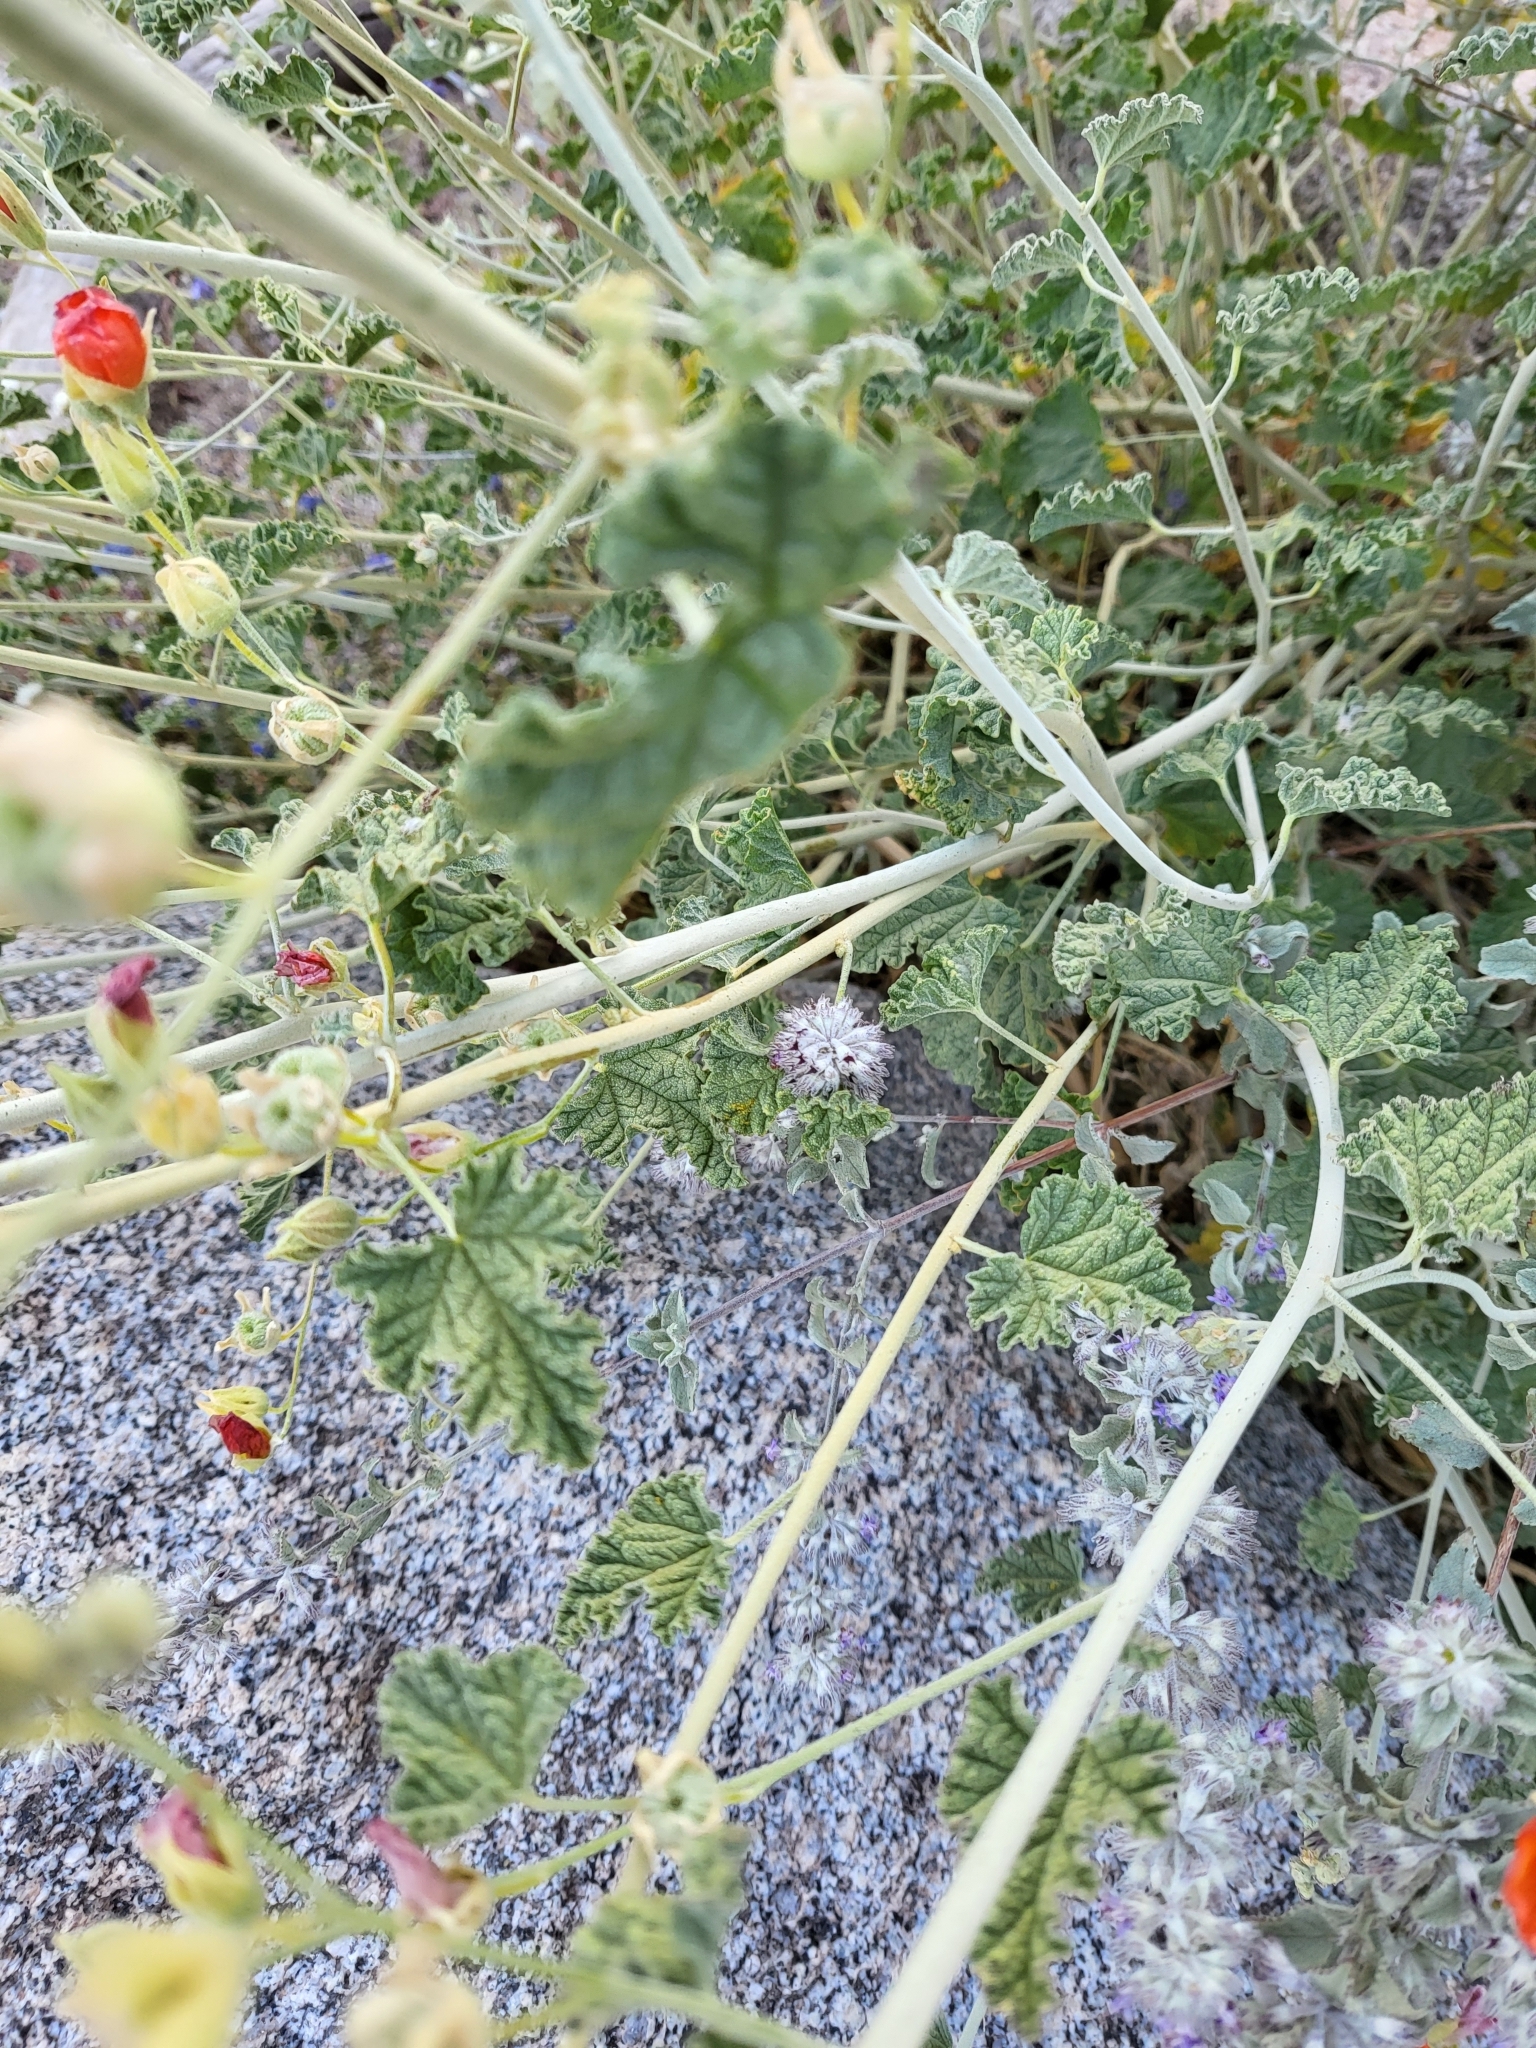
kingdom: Plantae
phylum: Tracheophyta
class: Magnoliopsida
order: Malvales
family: Malvaceae
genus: Sphaeralcea
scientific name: Sphaeralcea ambigua
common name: Apricot globe-mallow
